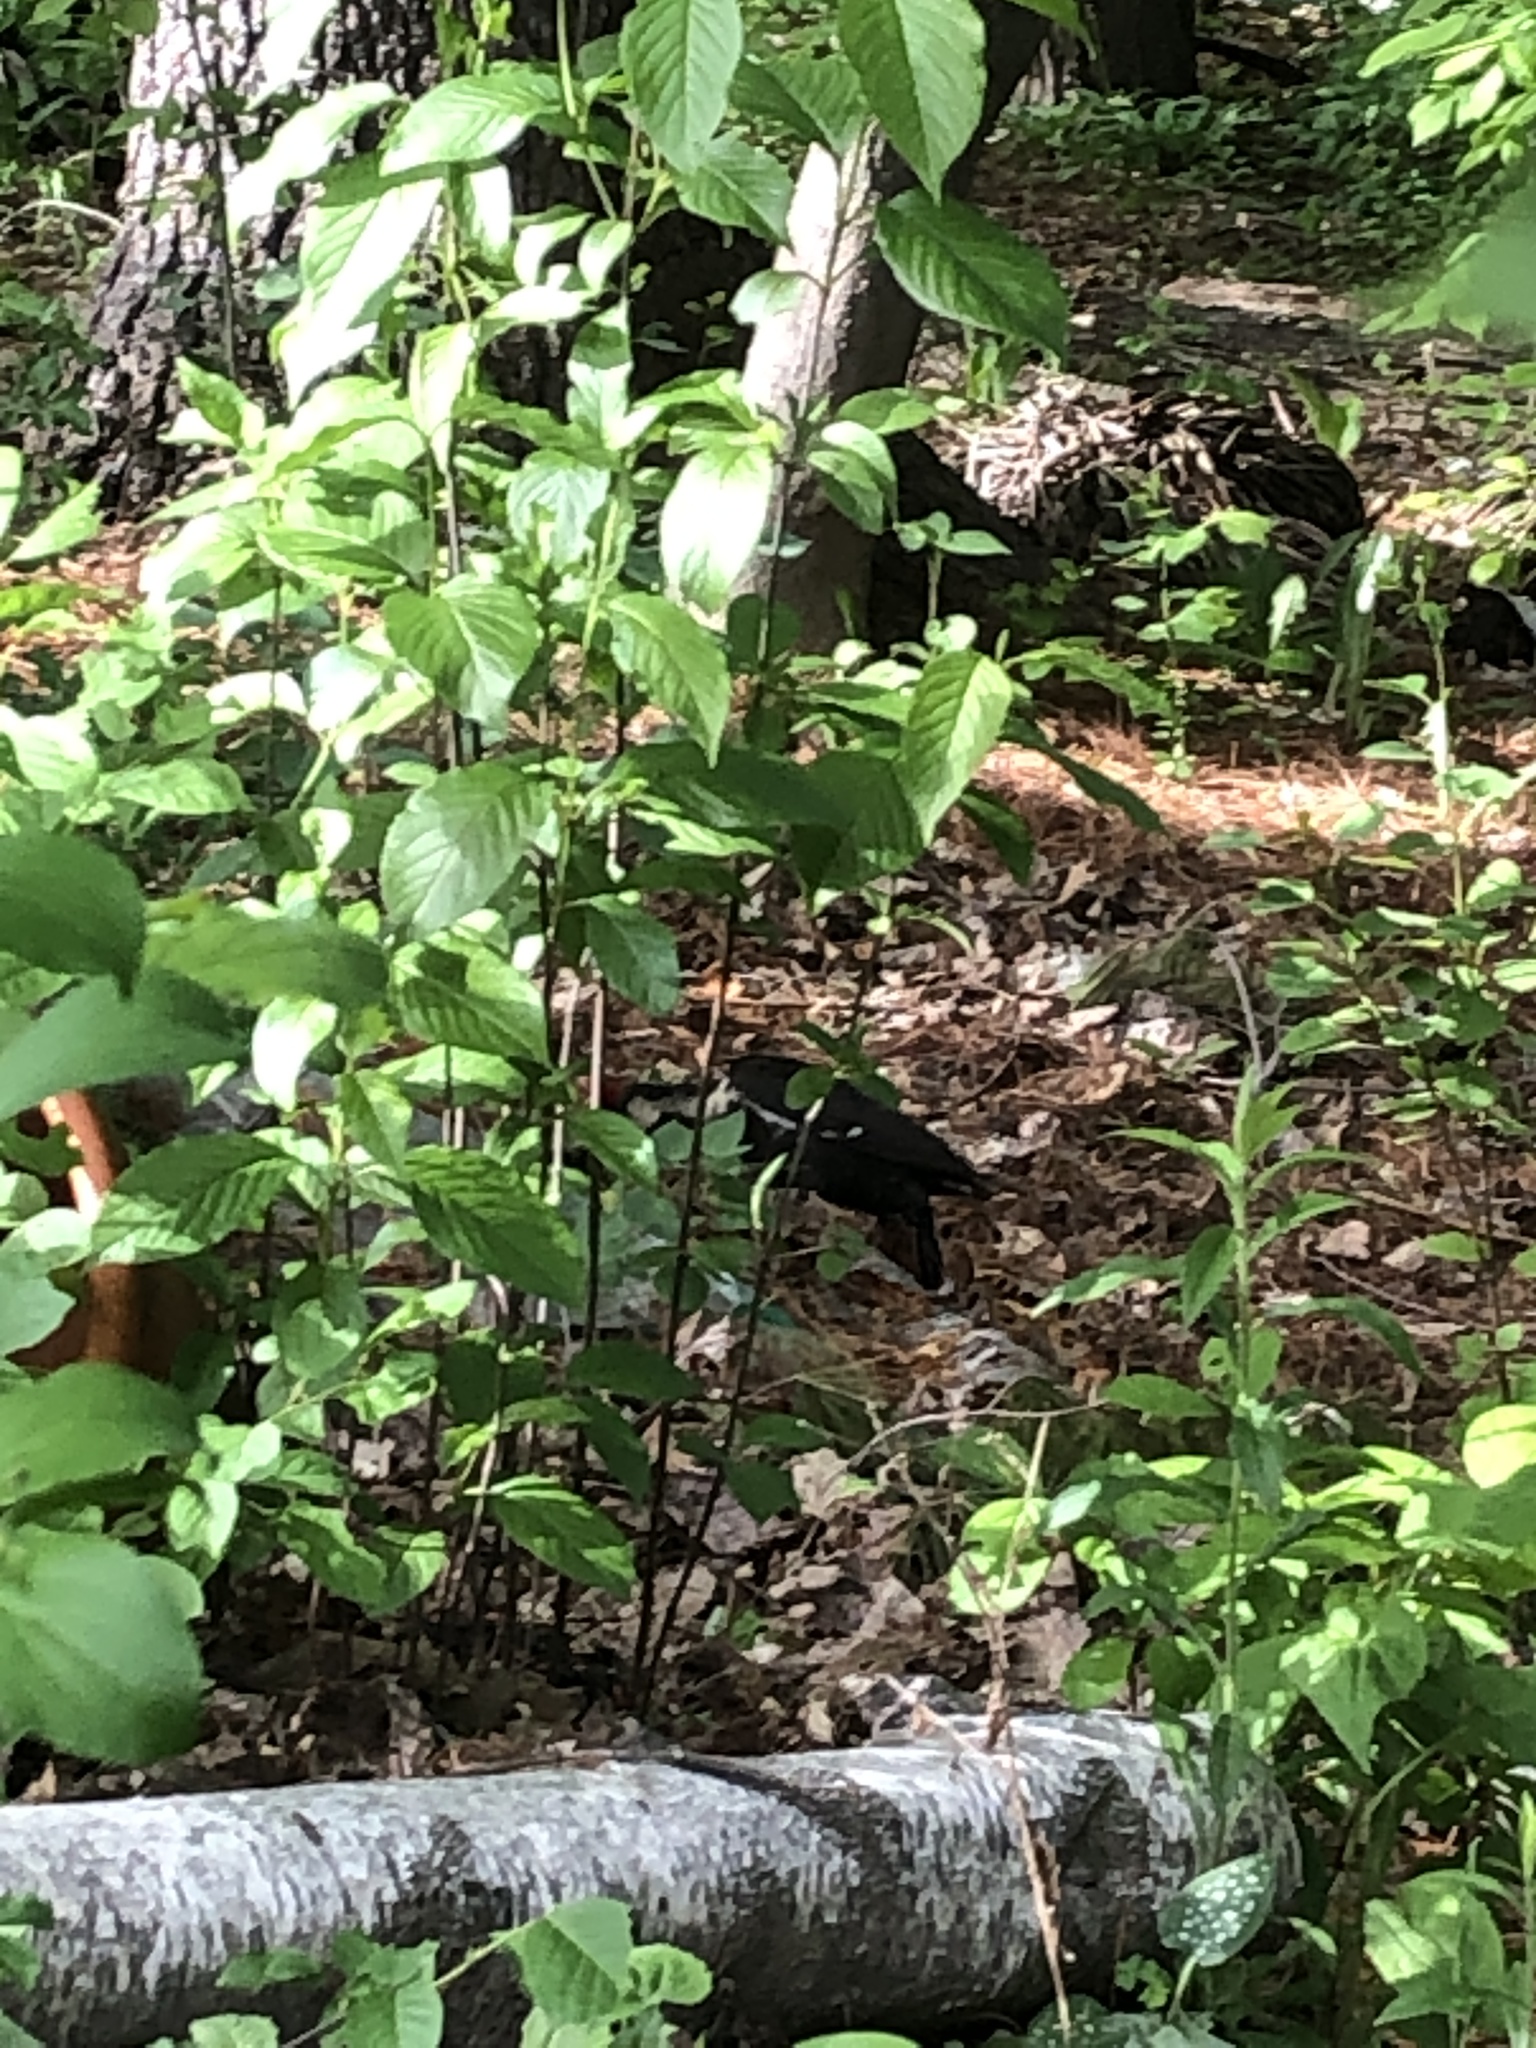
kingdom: Animalia
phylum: Chordata
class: Aves
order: Piciformes
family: Picidae
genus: Dryocopus
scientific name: Dryocopus pileatus
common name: Pileated woodpecker
